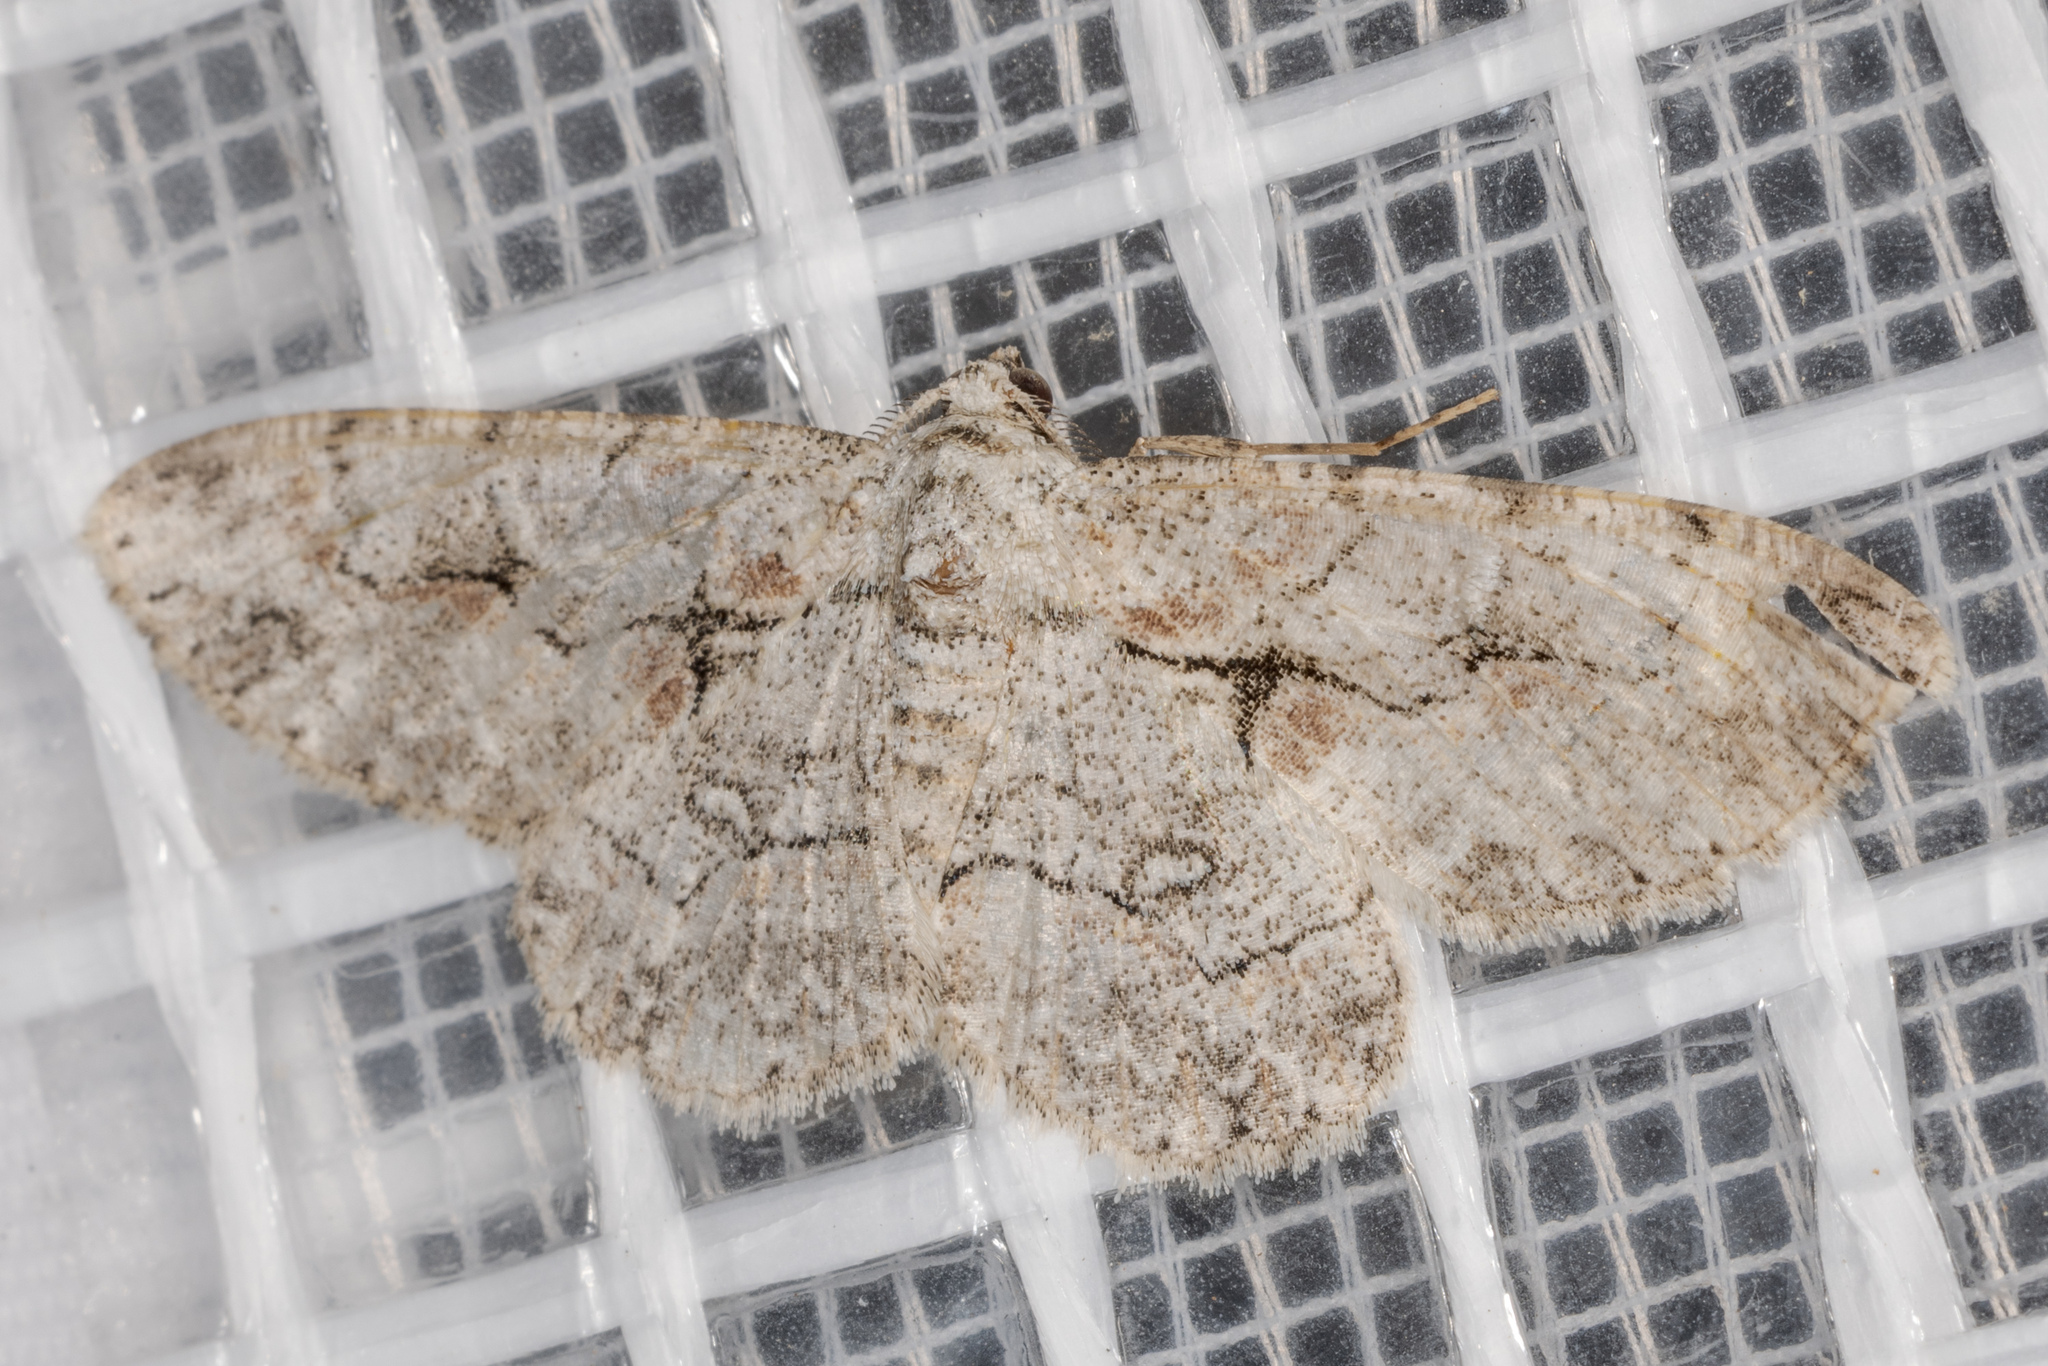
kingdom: Animalia
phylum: Arthropoda
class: Insecta
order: Lepidoptera
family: Geometridae
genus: Iridopsis
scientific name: Iridopsis defectaria
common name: Brown-shaded gray
